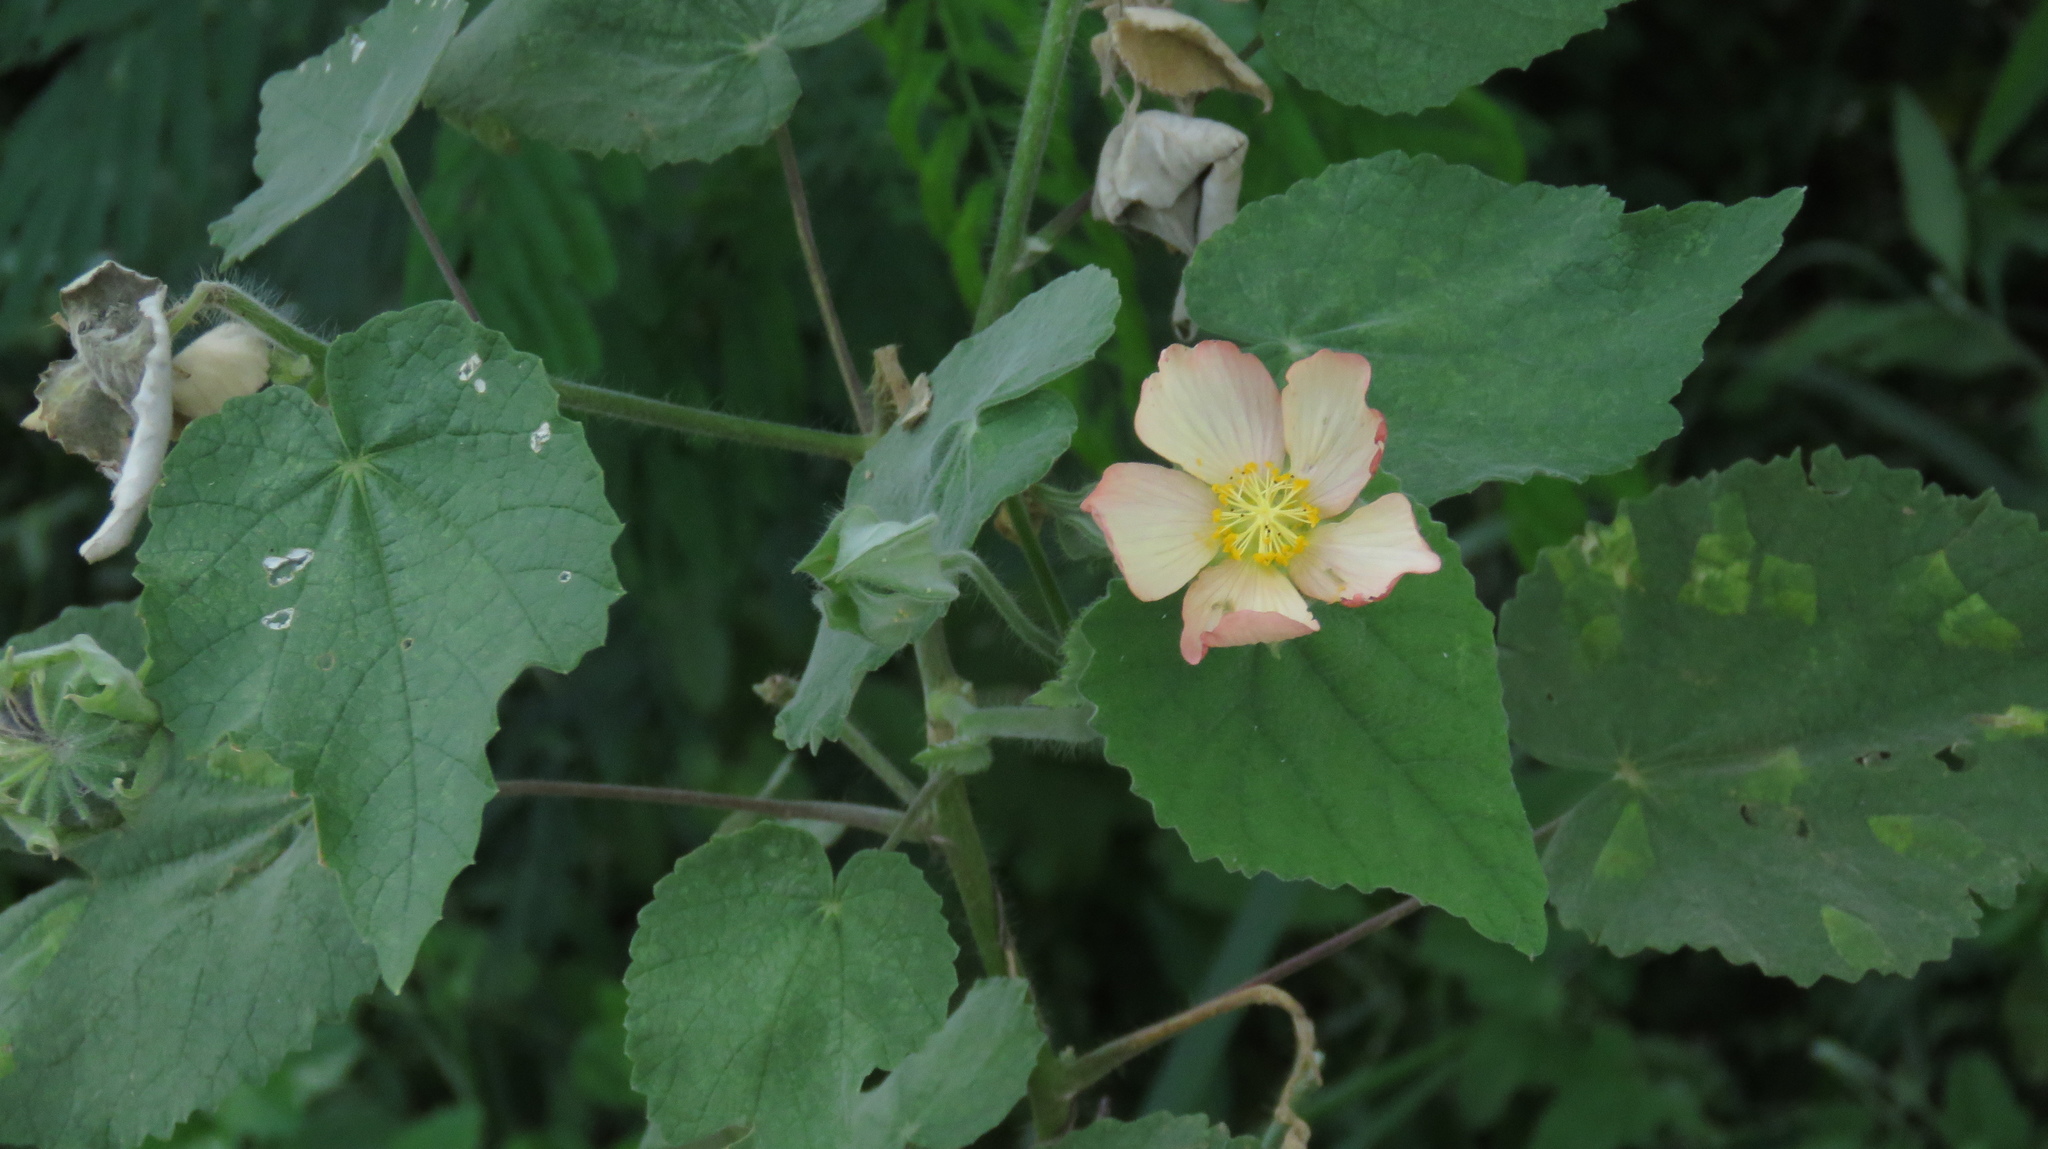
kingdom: Plantae
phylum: Tracheophyta
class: Magnoliopsida
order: Malvales
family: Malvaceae
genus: Callianthe
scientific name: Callianthe pauciflora
